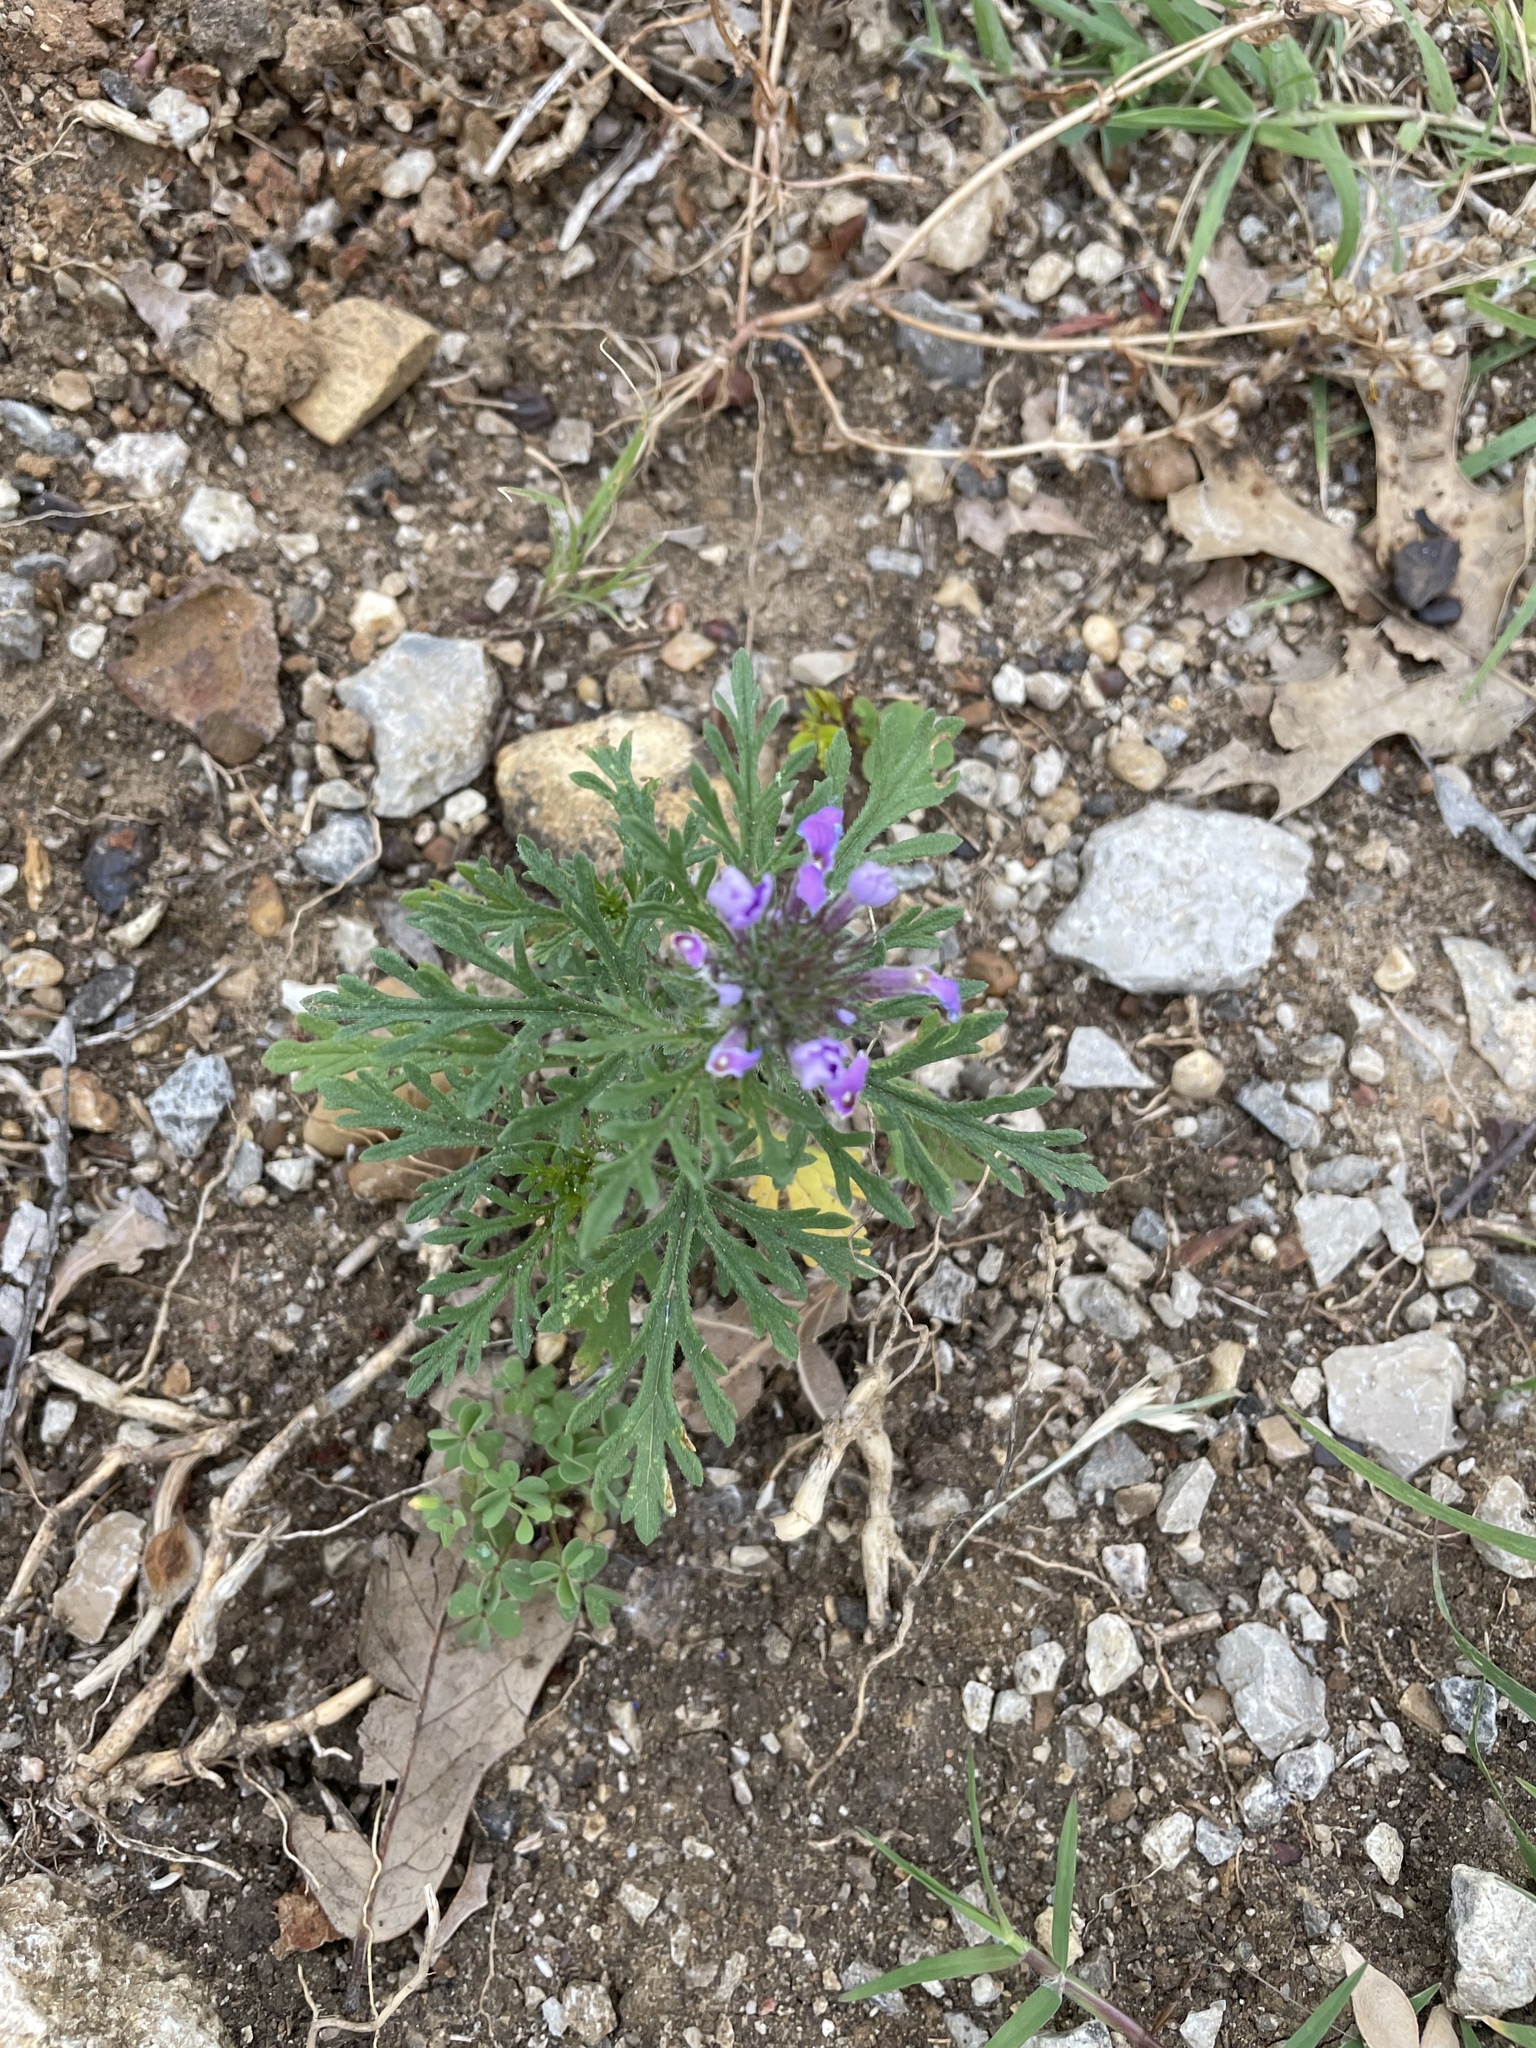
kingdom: Plantae
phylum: Tracheophyta
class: Magnoliopsida
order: Lamiales
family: Verbenaceae
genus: Verbena
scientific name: Verbena bipinnatifida
